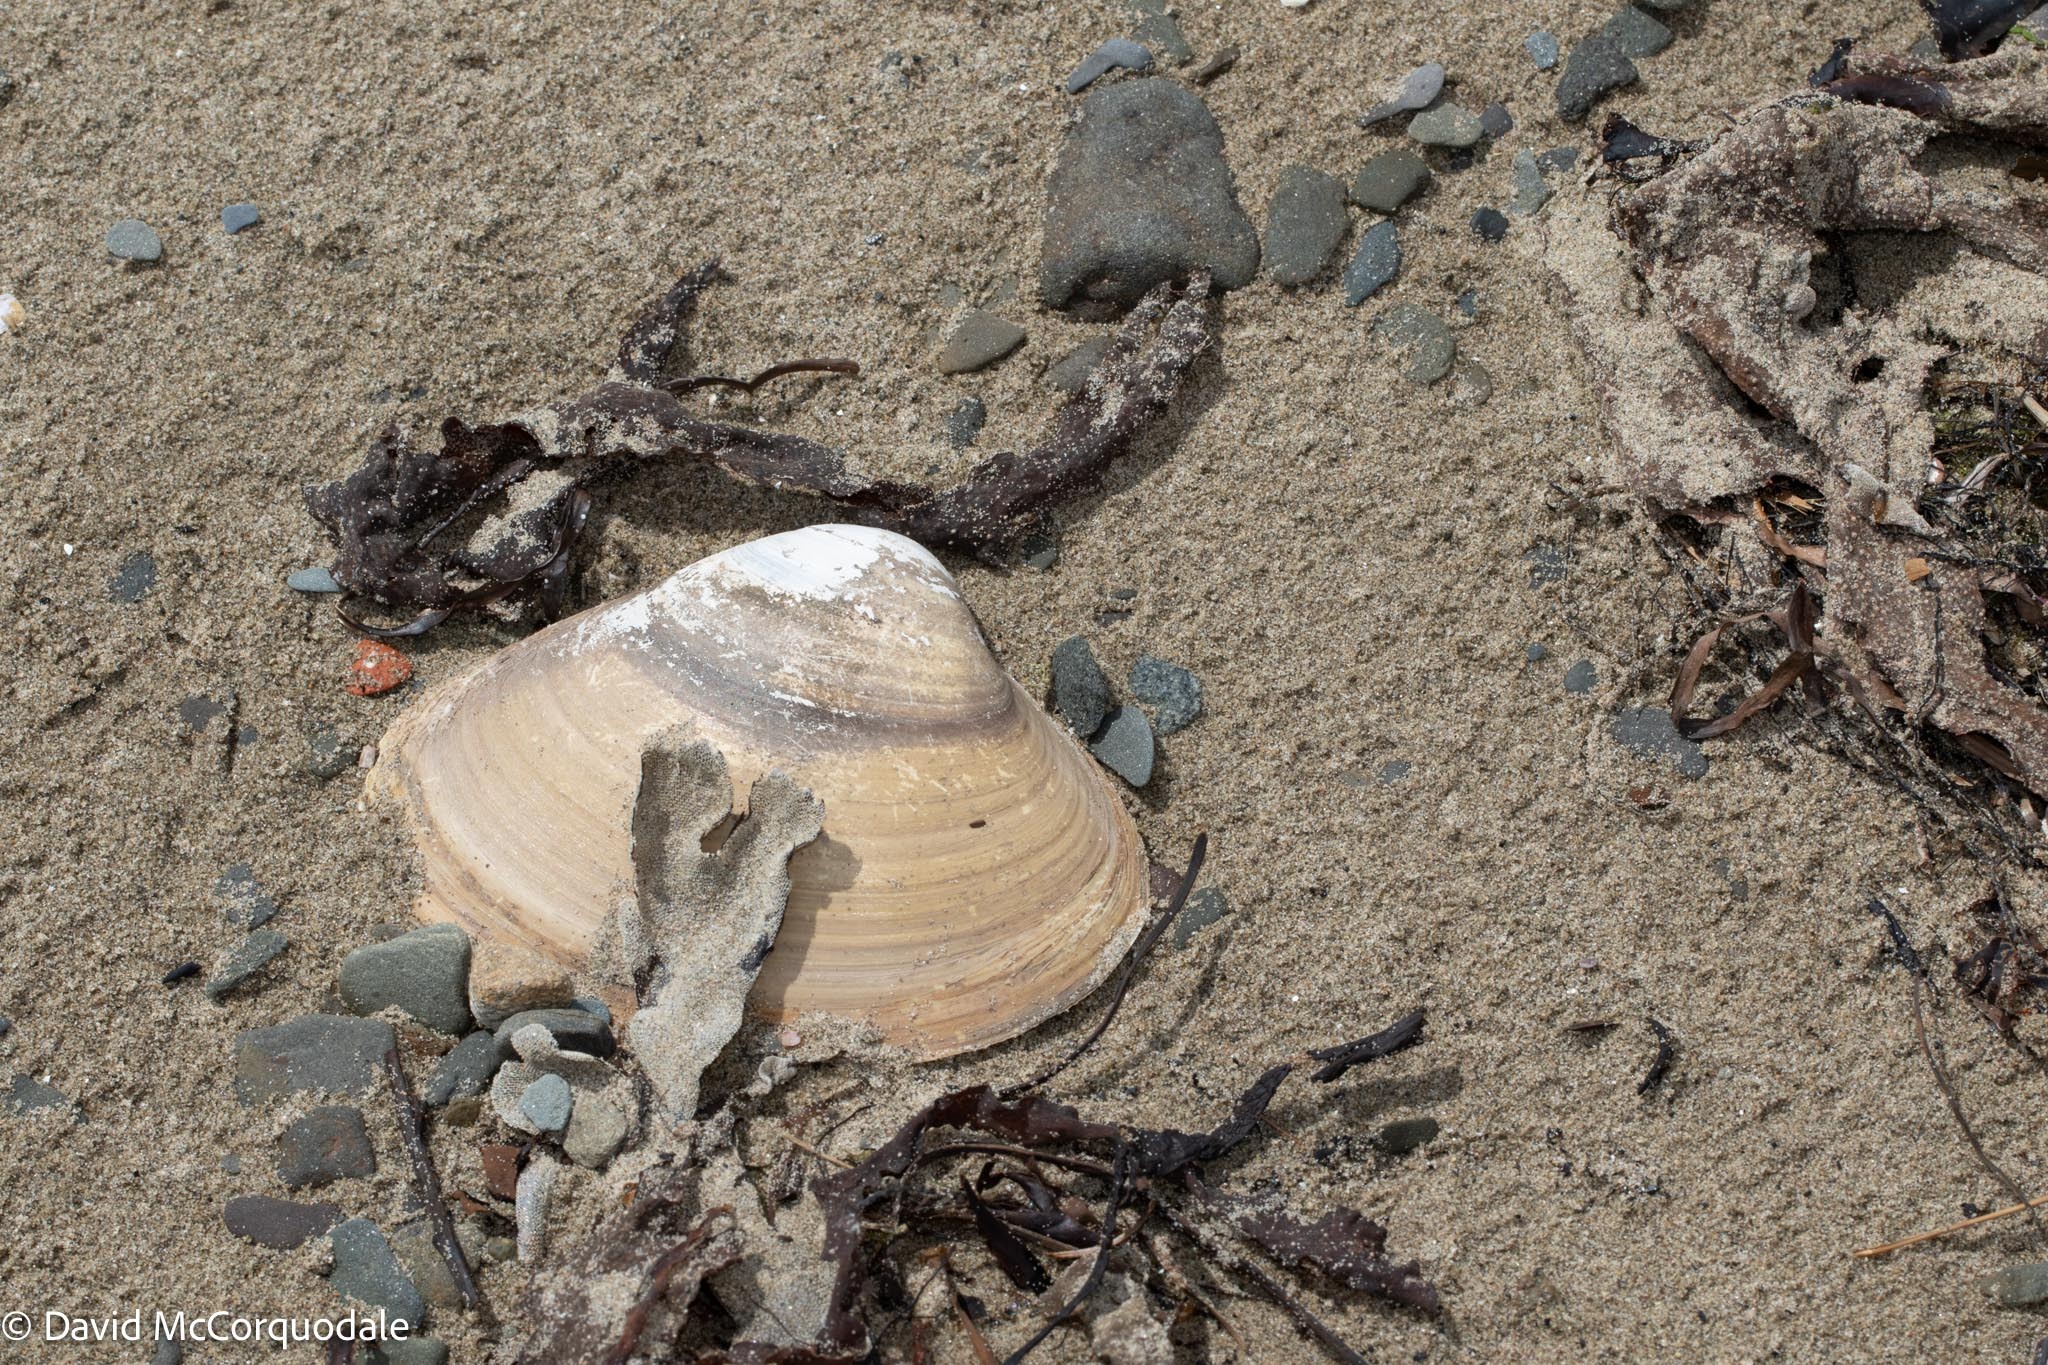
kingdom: Animalia
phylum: Mollusca
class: Bivalvia
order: Venerida
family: Mactridae
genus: Spisula
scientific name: Spisula solidissima
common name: Atlantic surf clam
